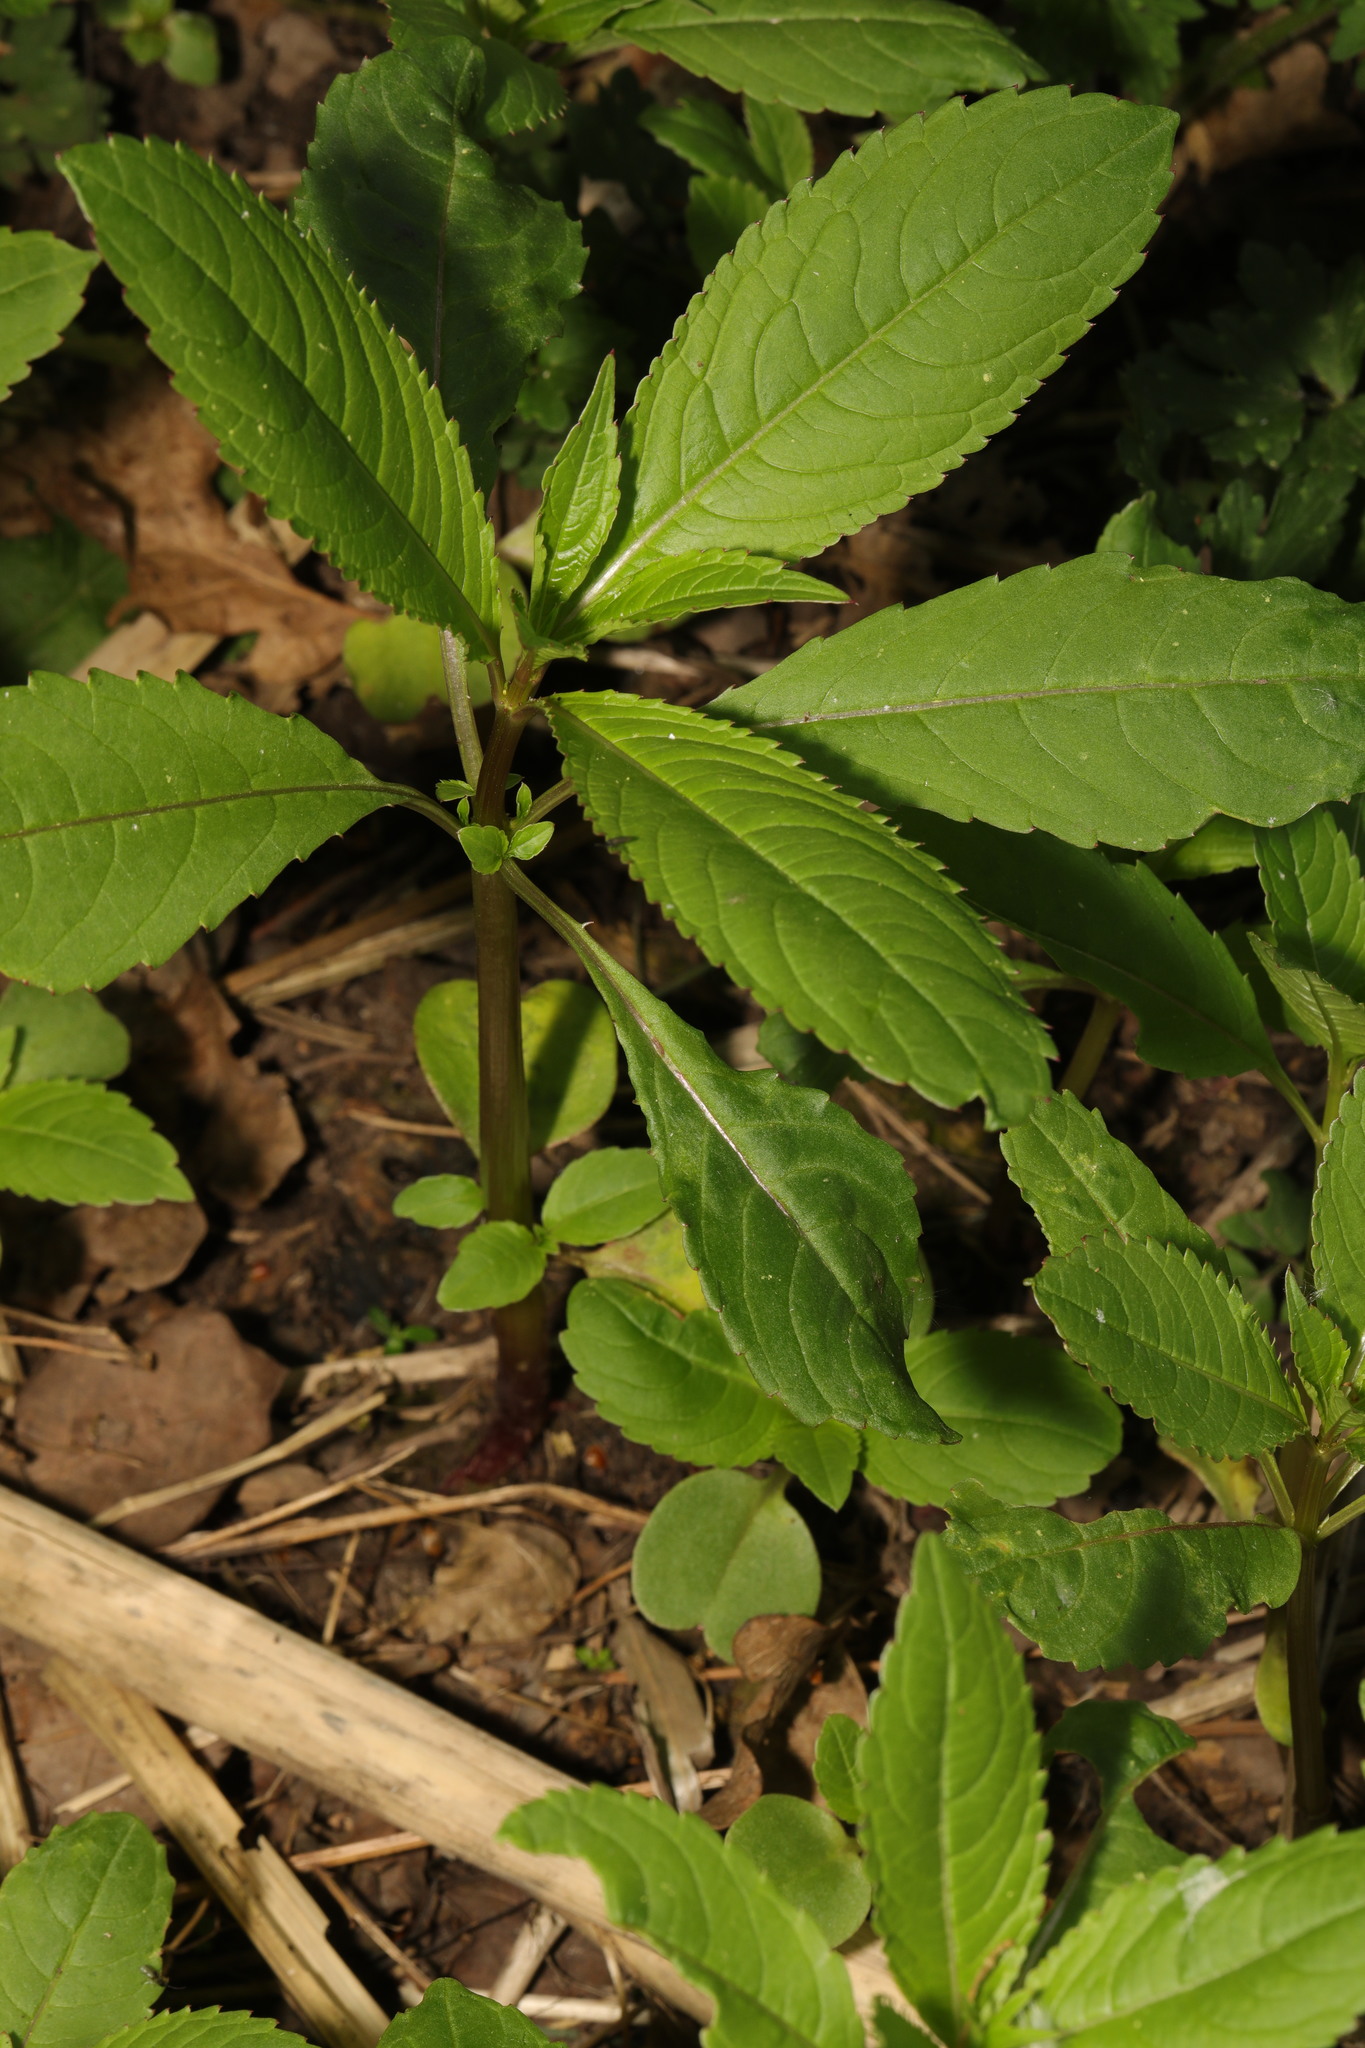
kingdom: Plantae
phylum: Tracheophyta
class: Magnoliopsida
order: Ericales
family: Balsaminaceae
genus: Impatiens
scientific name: Impatiens glandulifera
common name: Himalayan balsam
